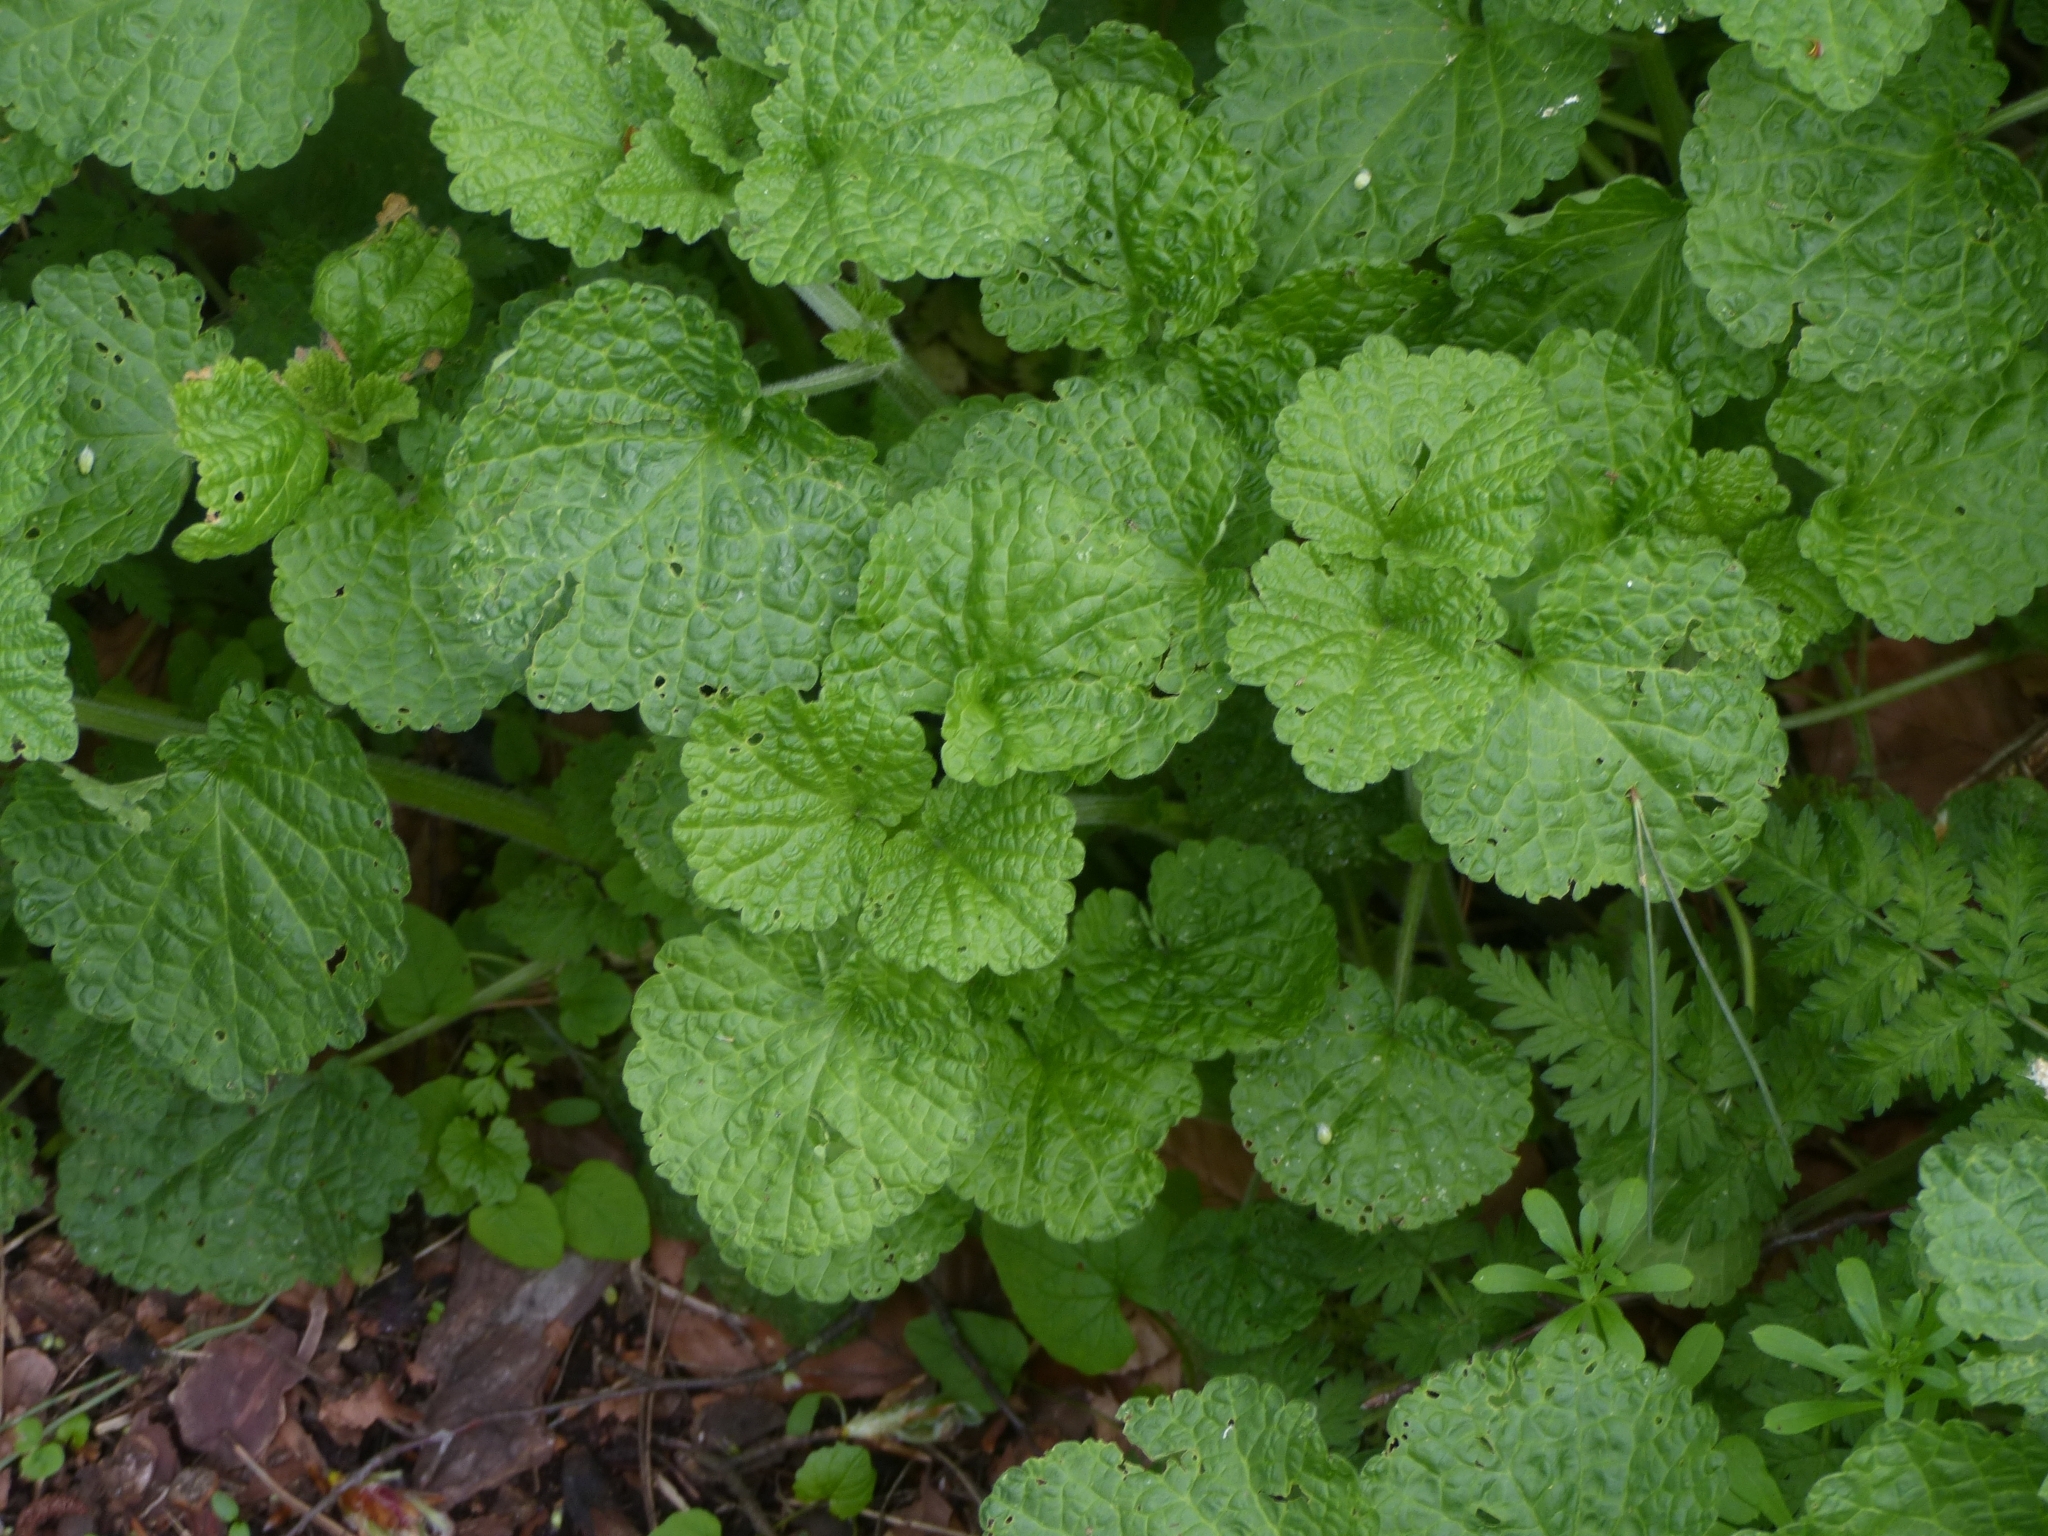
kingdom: Plantae
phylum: Tracheophyta
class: Magnoliopsida
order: Lamiales
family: Lamiaceae
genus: Ballota
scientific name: Ballota nigra
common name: Black horehound
